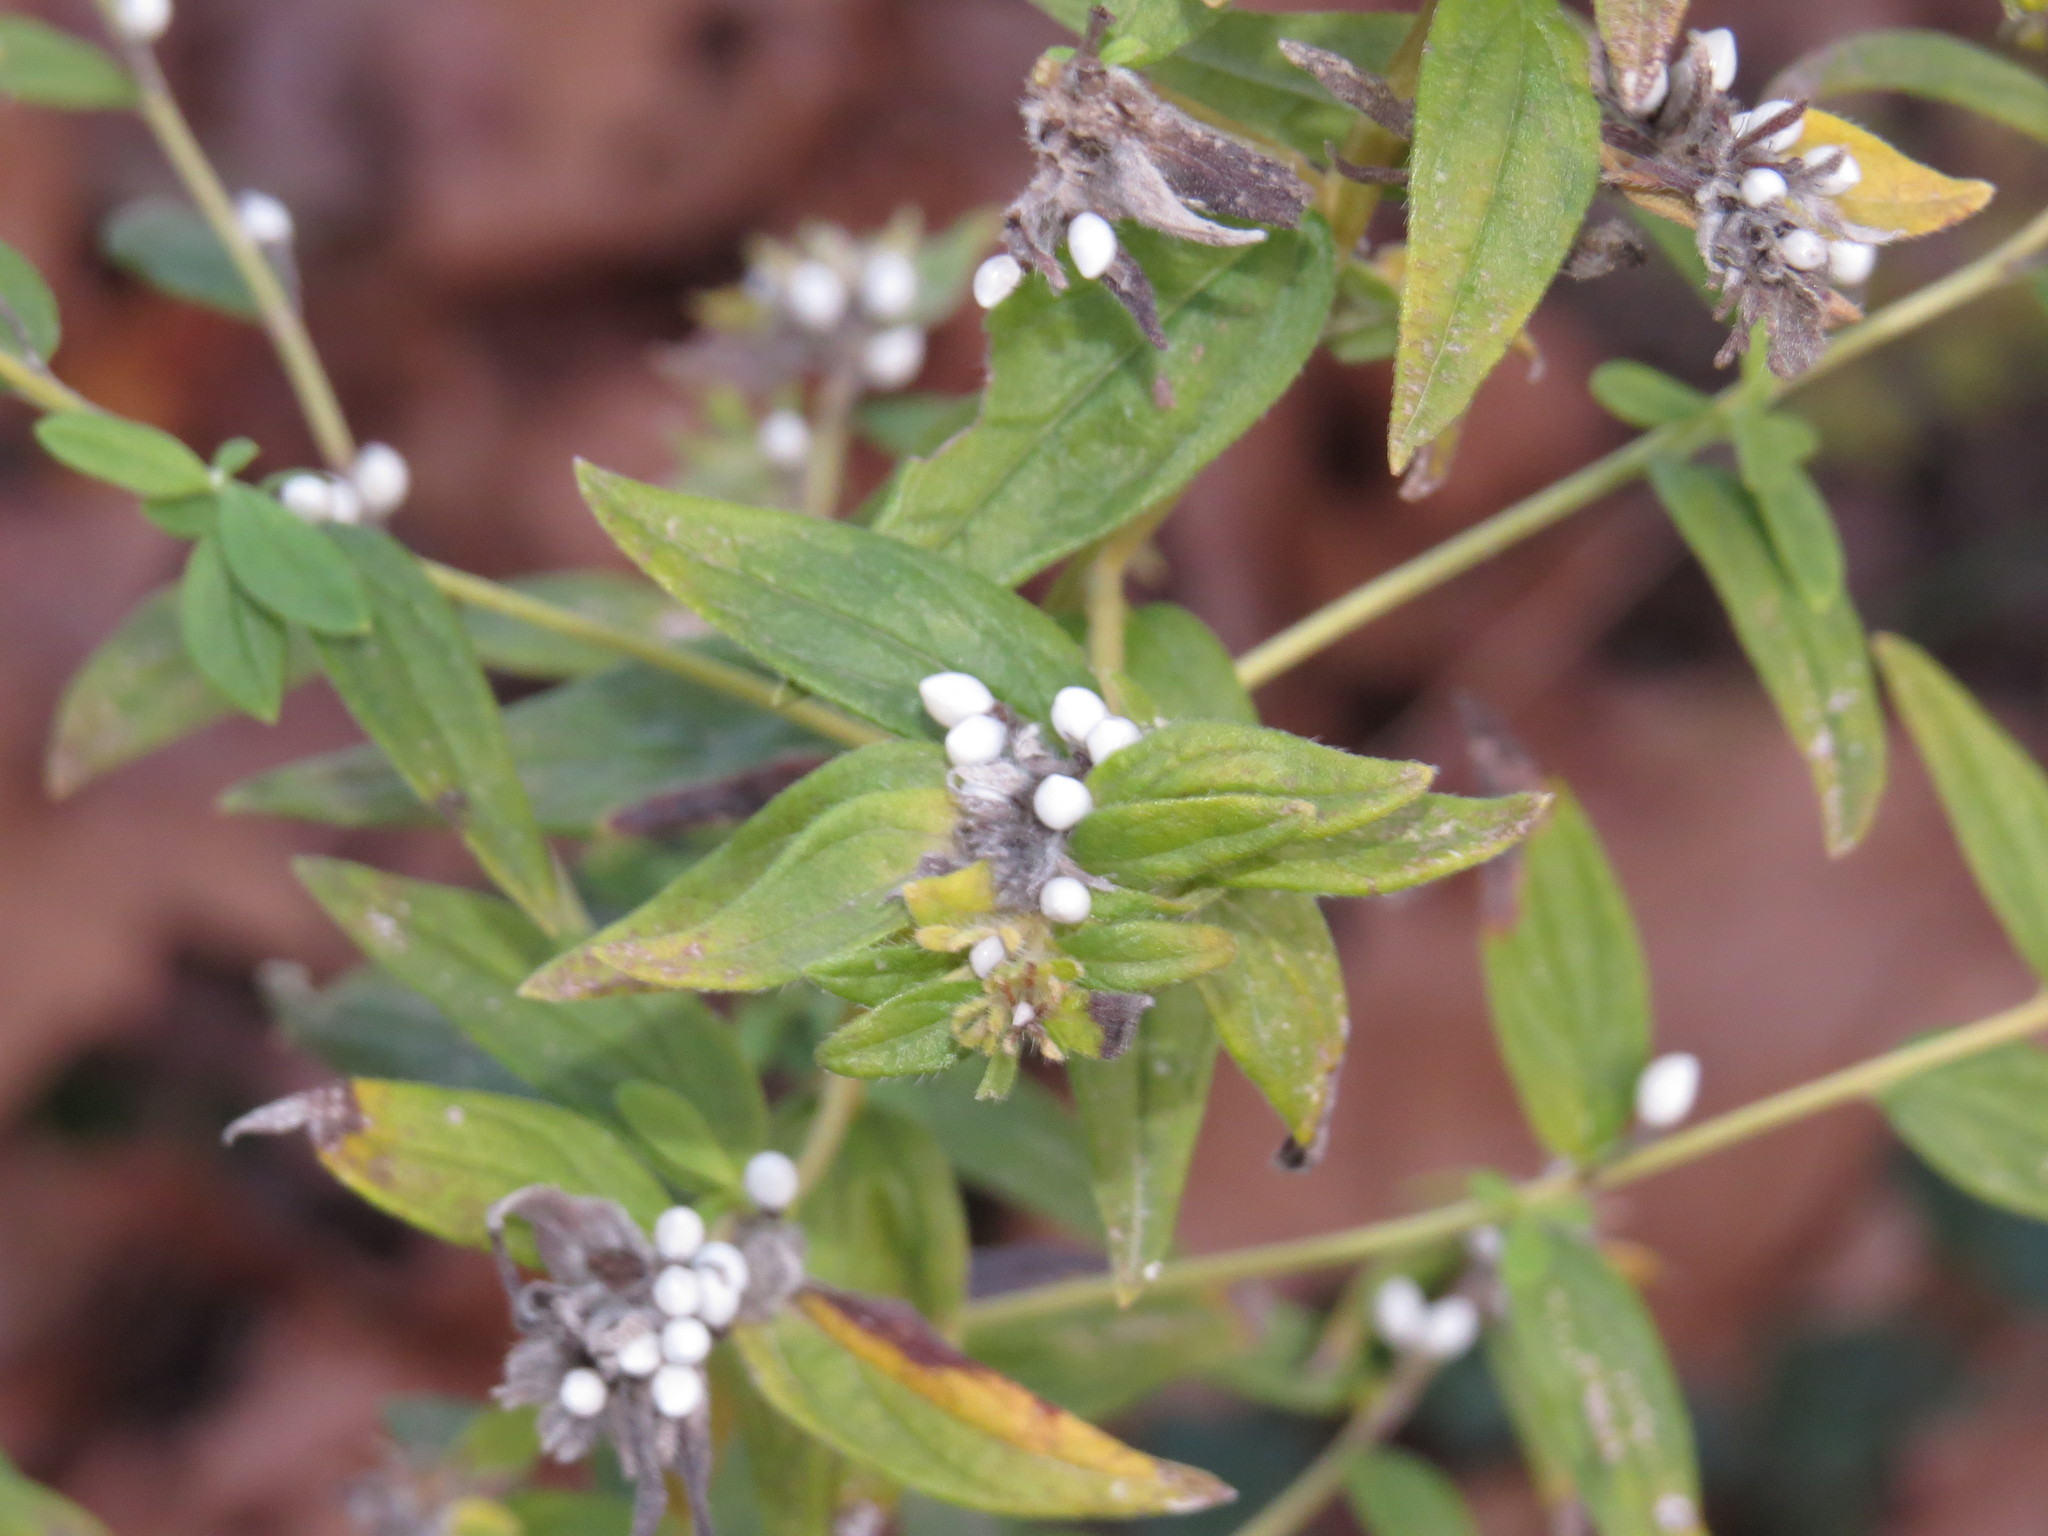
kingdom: Plantae
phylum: Tracheophyta
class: Magnoliopsida
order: Boraginales
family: Boraginaceae
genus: Lithospermum
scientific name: Lithospermum officinale
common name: Common gromwell
